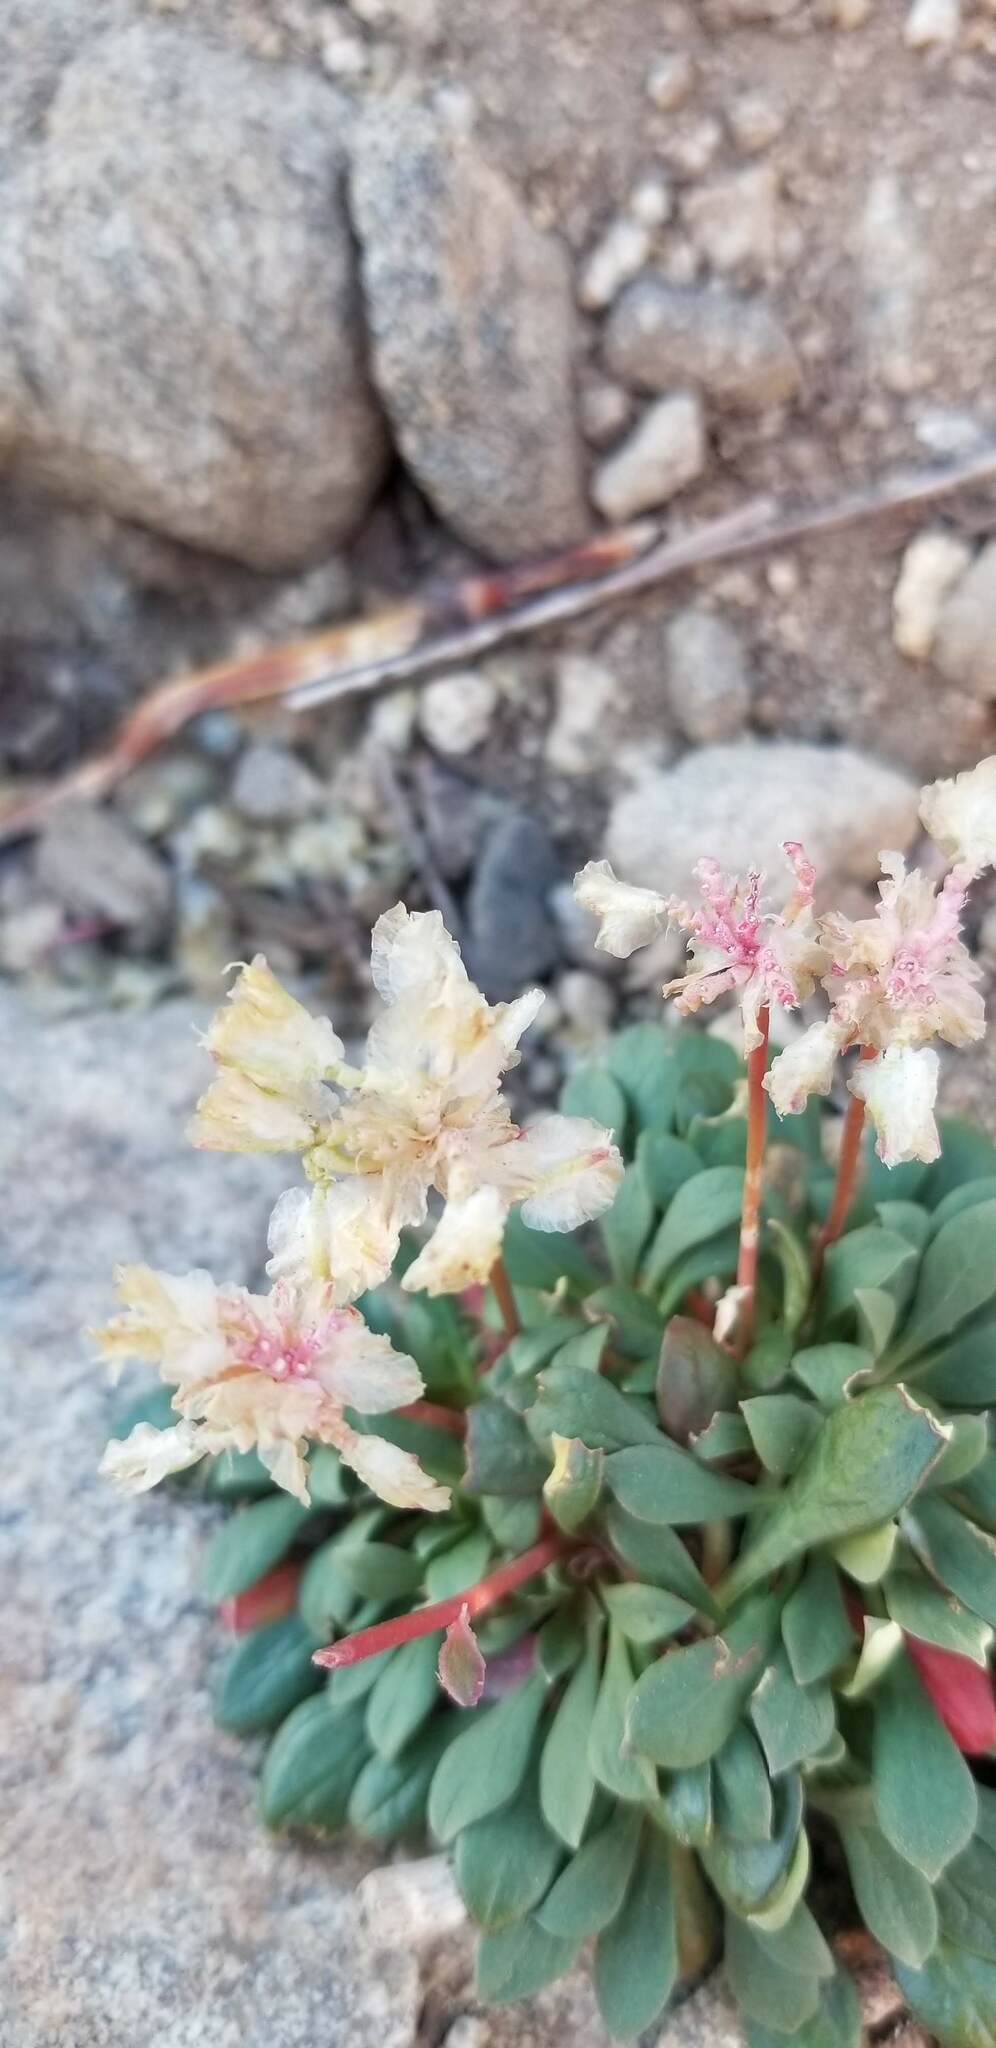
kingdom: Plantae
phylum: Tracheophyta
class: Magnoliopsida
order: Caryophyllales
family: Montiaceae
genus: Calyptridium
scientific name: Calyptridium umbellatum
